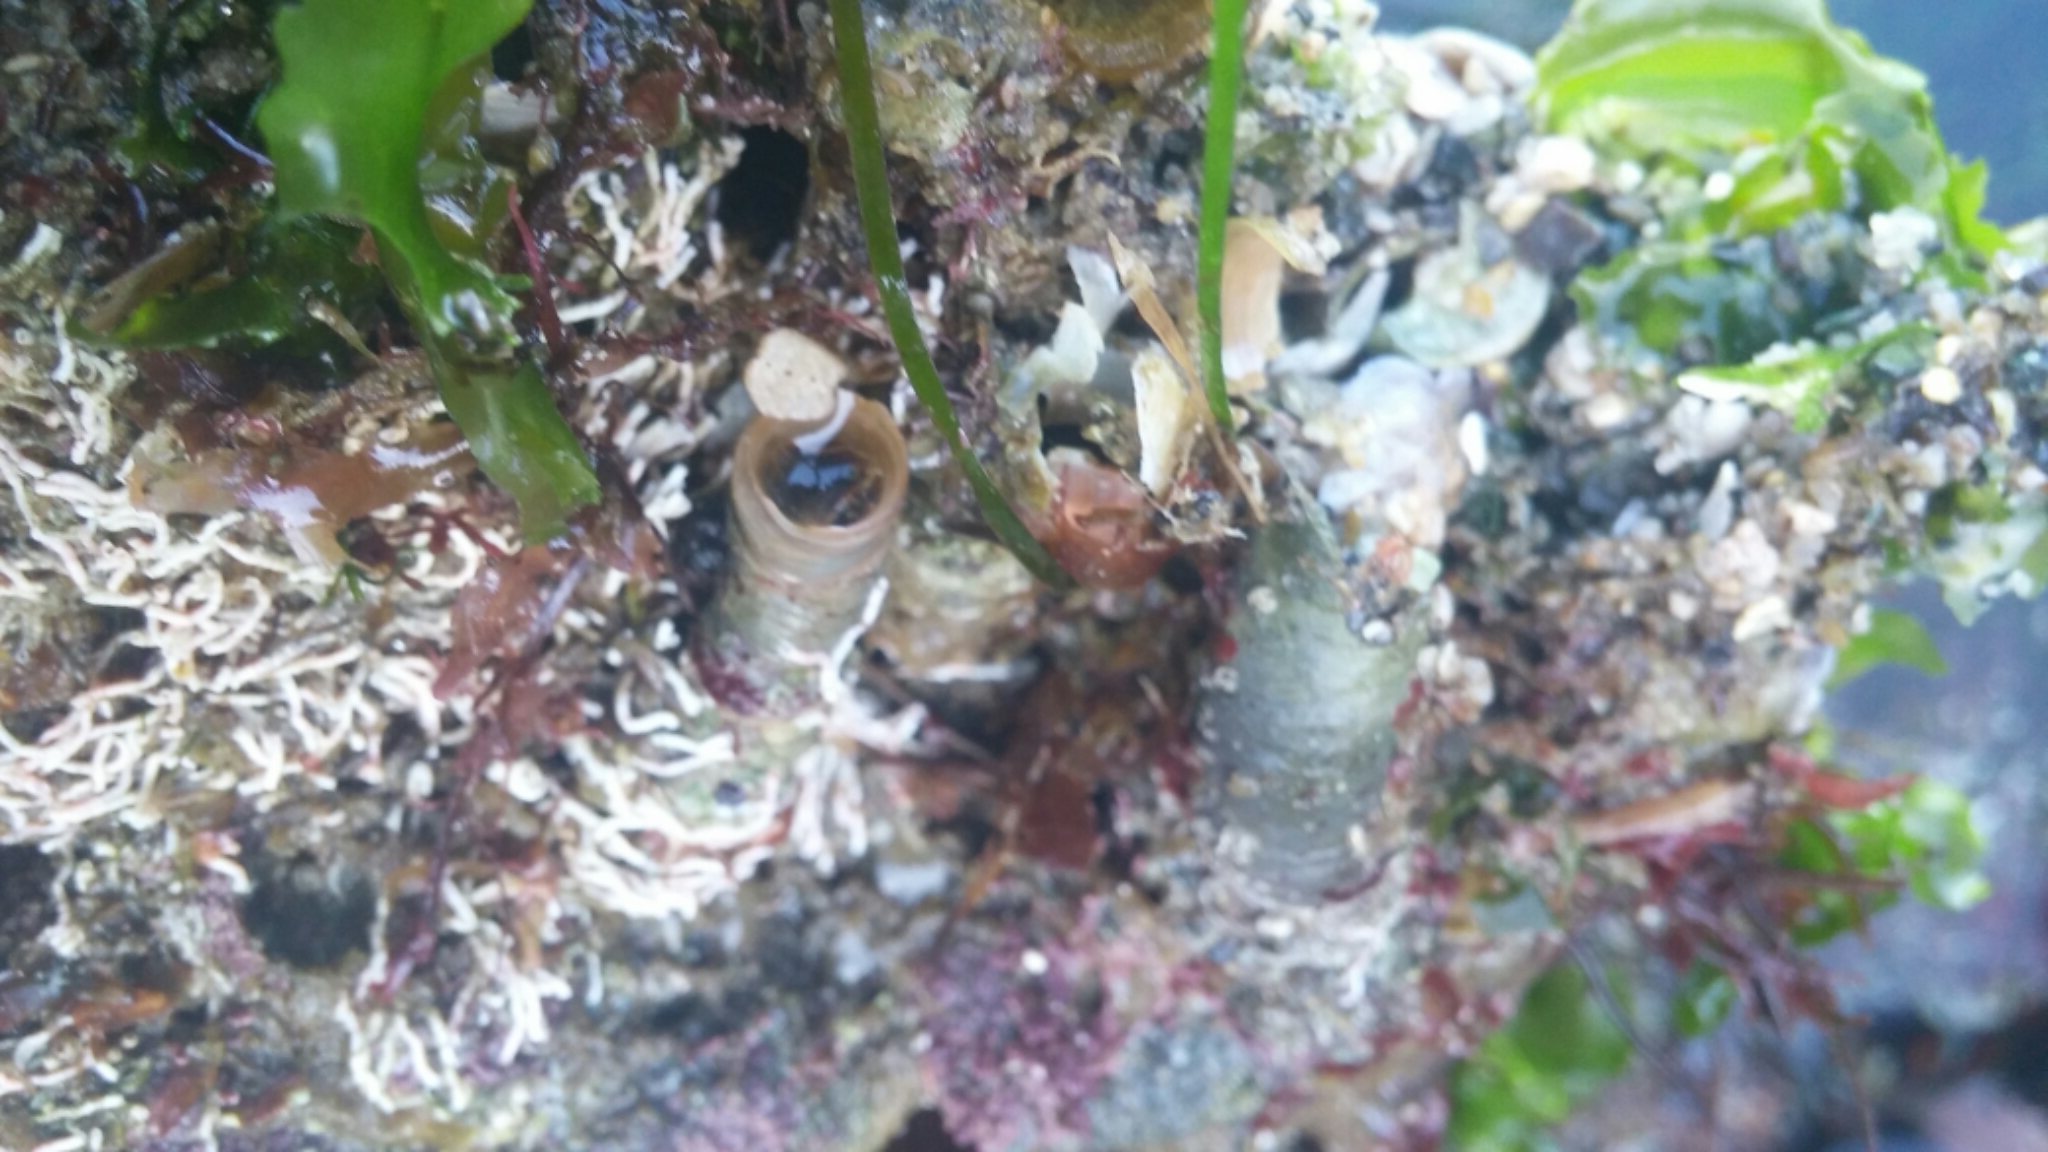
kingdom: Animalia
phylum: Mollusca
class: Gastropoda
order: Littorinimorpha
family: Vermetidae
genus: Thylacodes
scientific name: Thylacodes squamigerus
